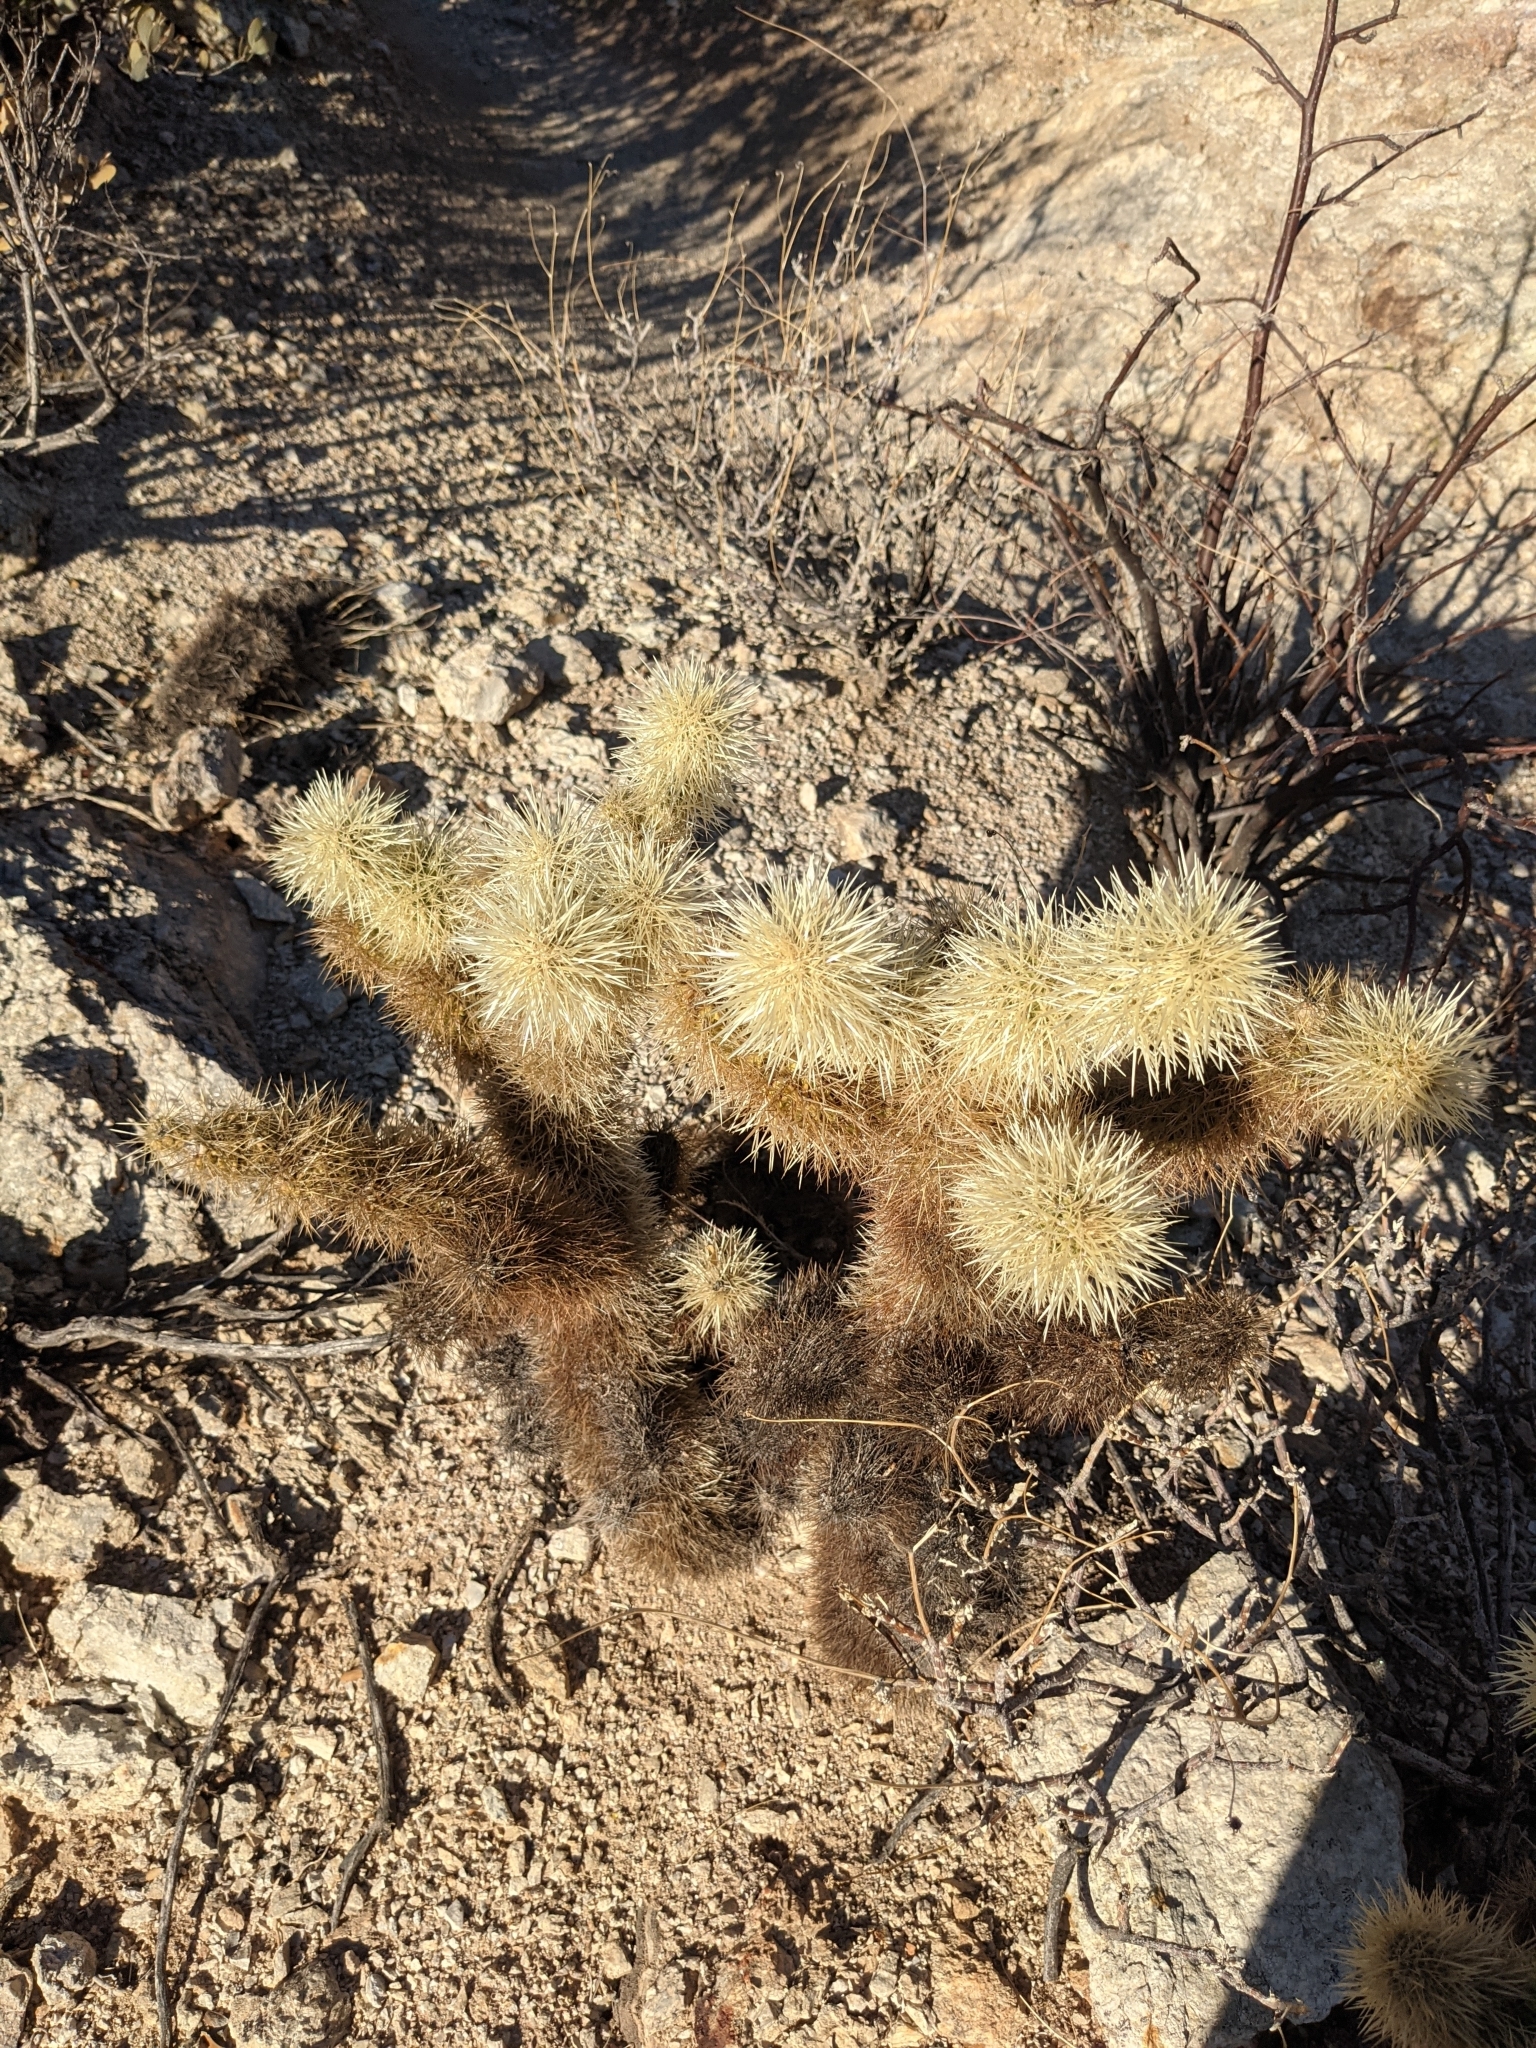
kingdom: Plantae
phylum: Tracheophyta
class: Magnoliopsida
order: Caryophyllales
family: Cactaceae
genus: Cylindropuntia
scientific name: Cylindropuntia fosbergii
